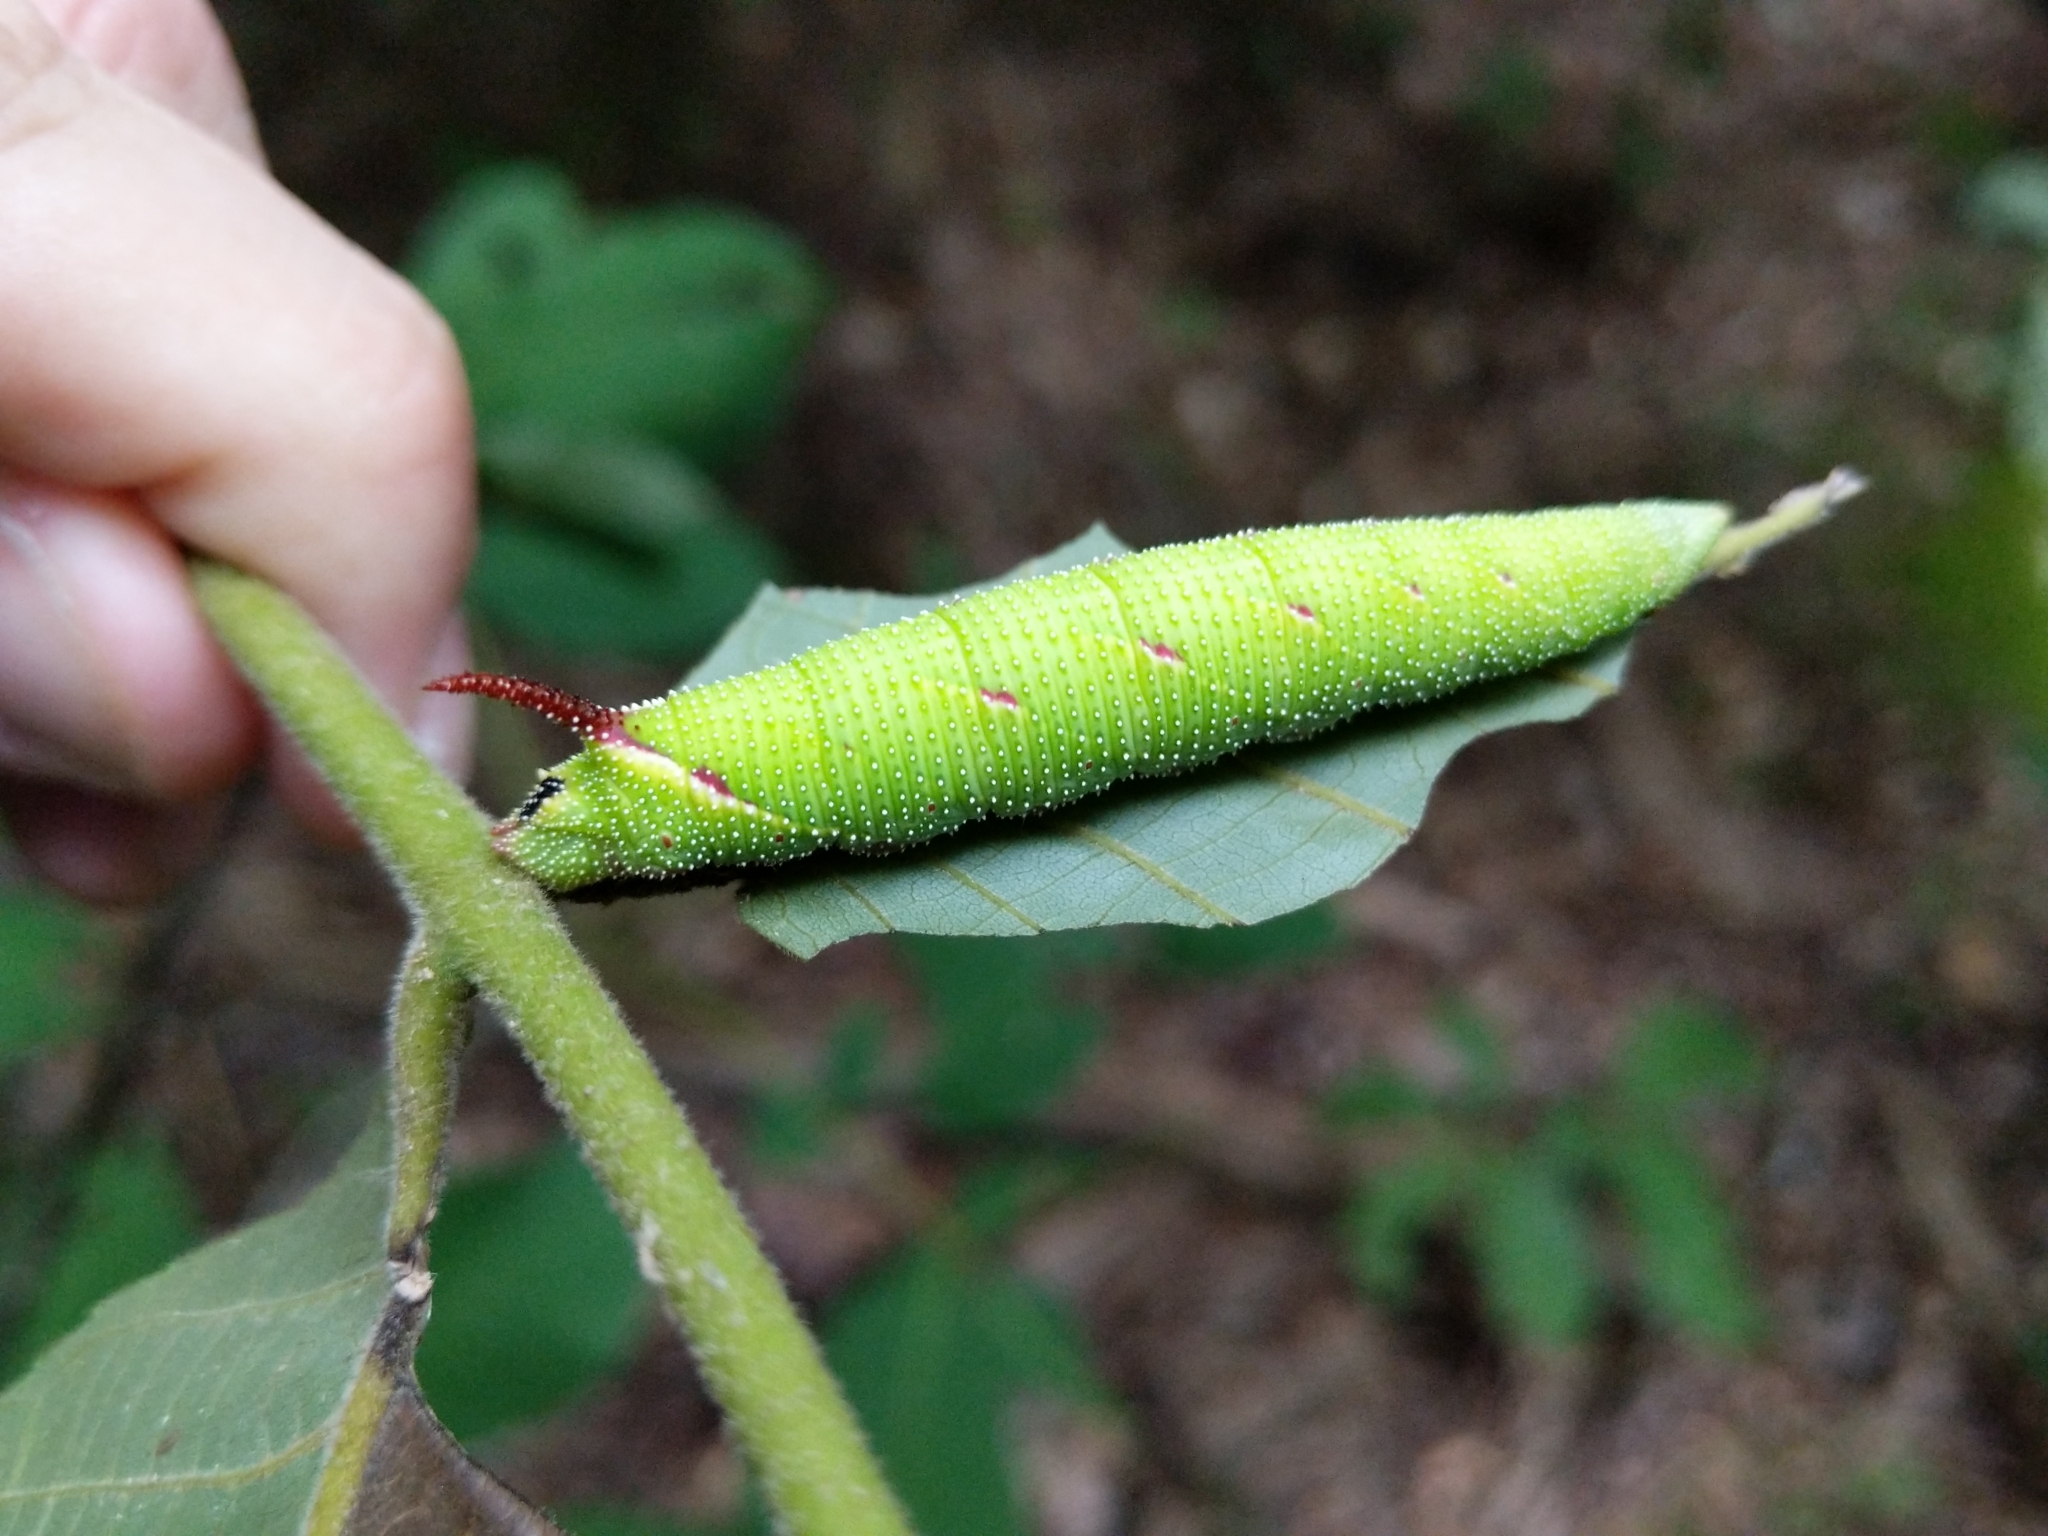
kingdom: Animalia
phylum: Arthropoda
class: Insecta
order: Lepidoptera
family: Sphingidae
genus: Amorpha
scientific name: Amorpha juglandis
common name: Walnut sphinx
